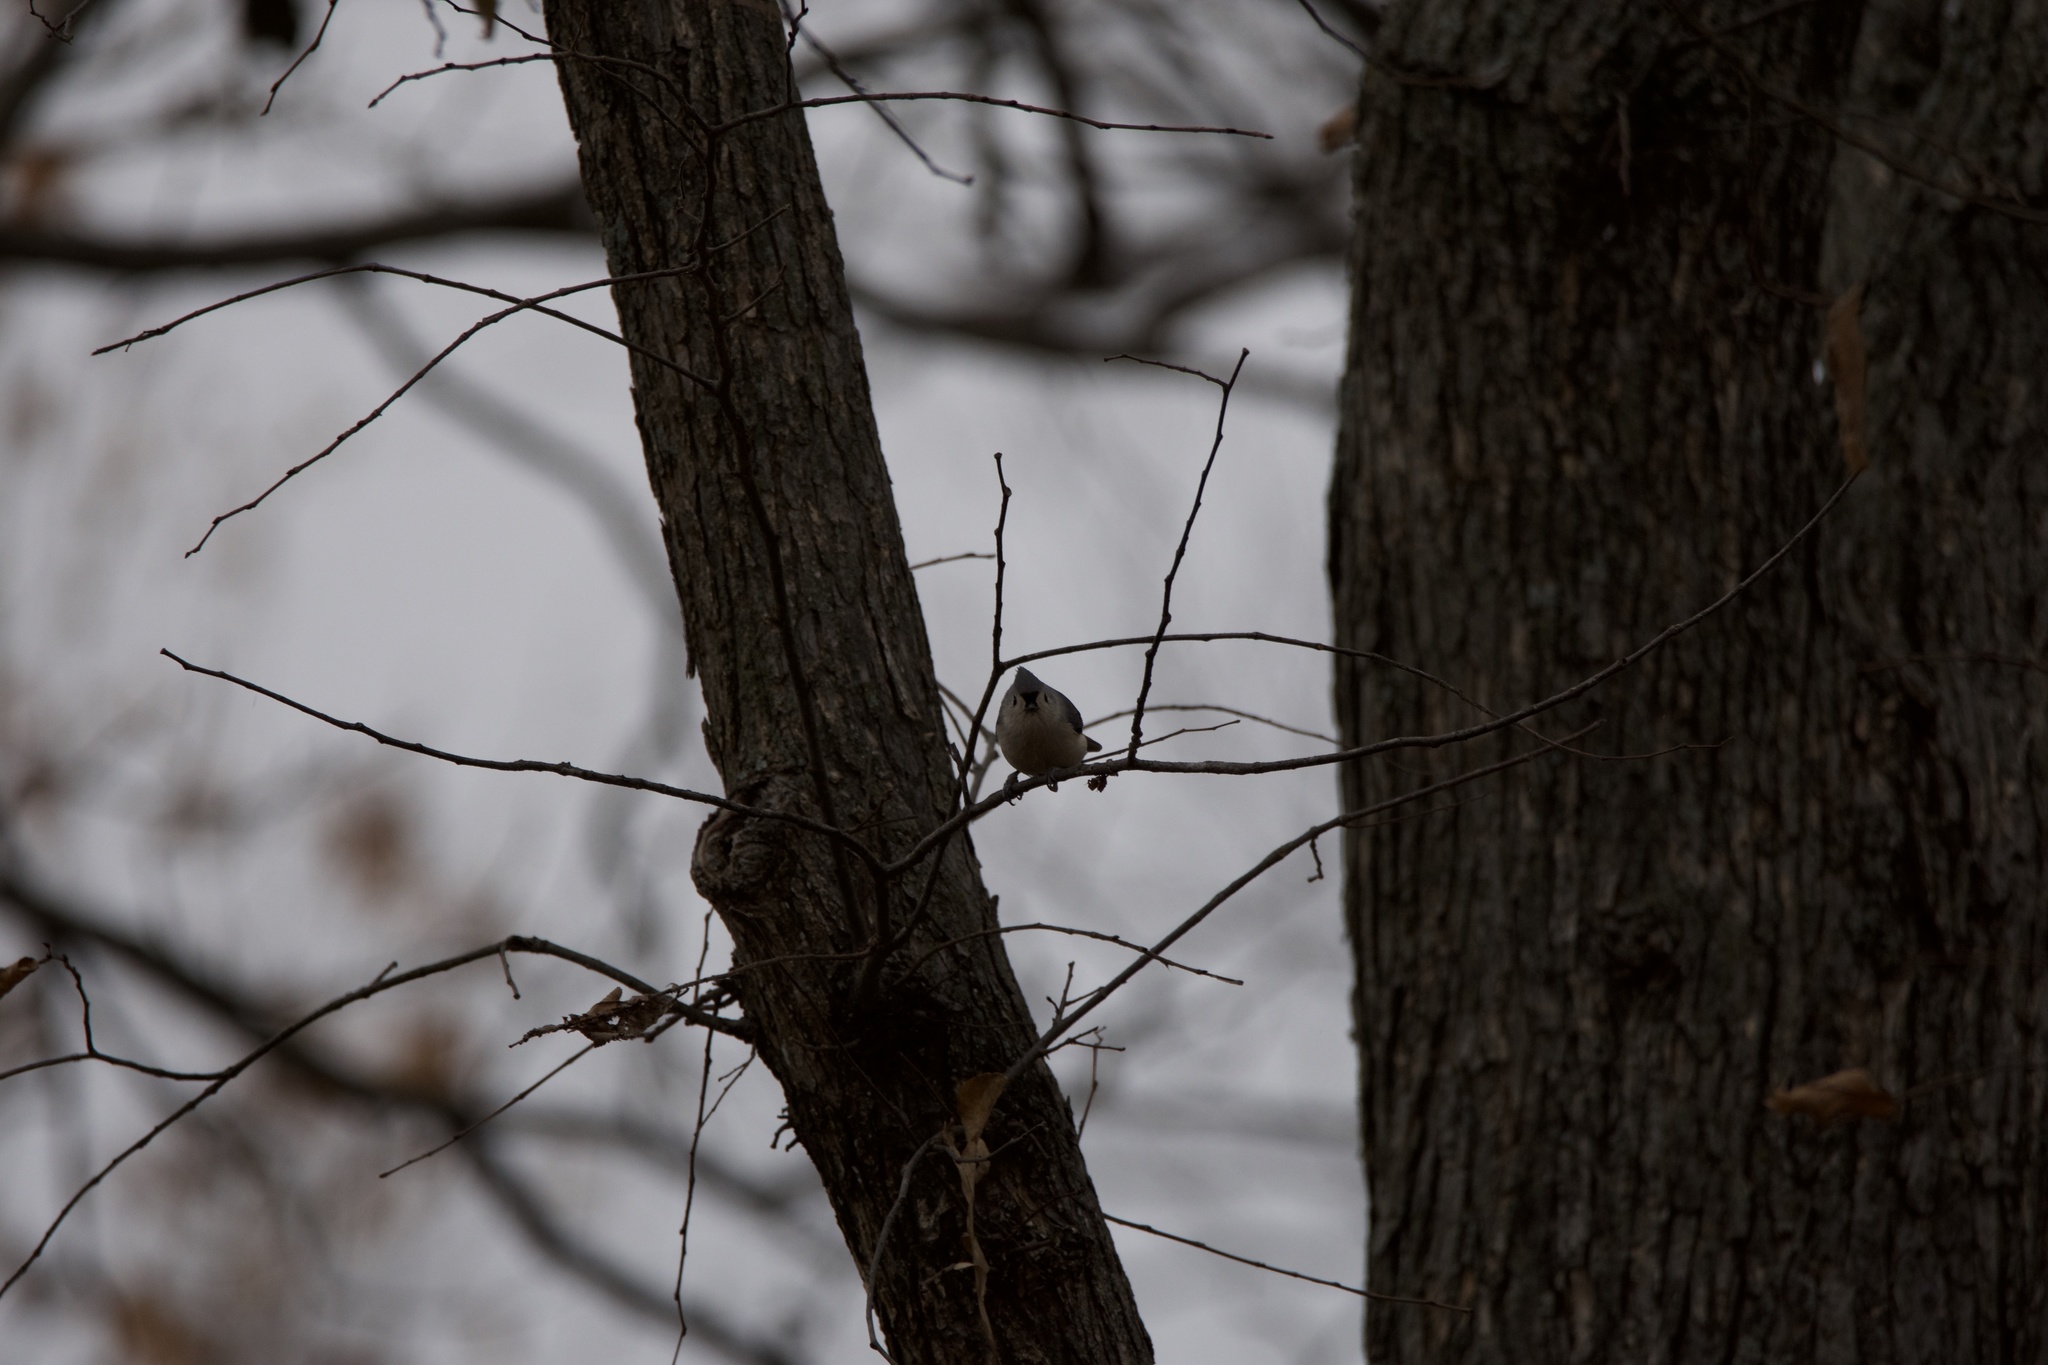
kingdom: Animalia
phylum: Chordata
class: Aves
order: Passeriformes
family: Paridae
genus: Baeolophus
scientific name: Baeolophus bicolor
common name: Tufted titmouse
